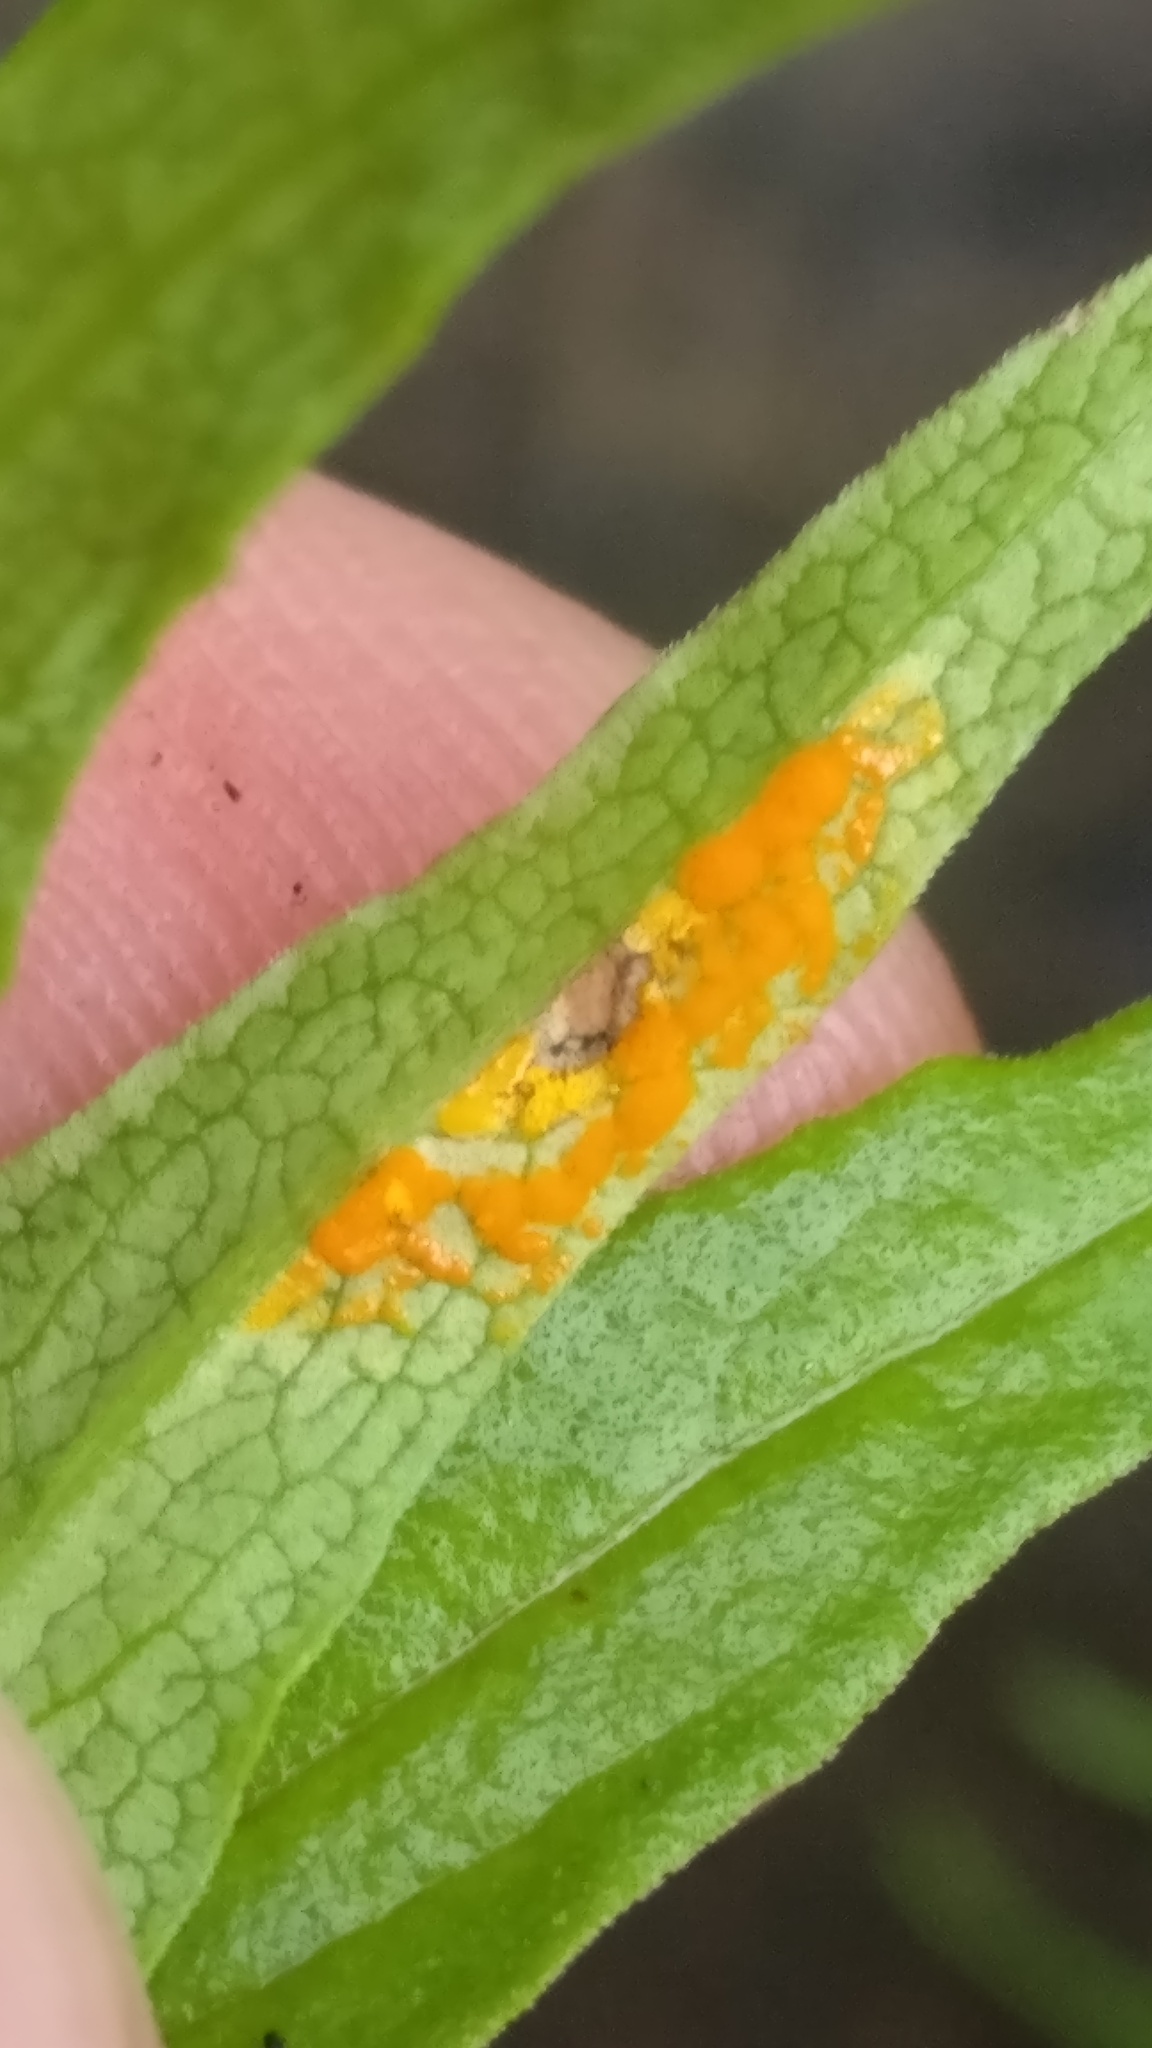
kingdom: Fungi
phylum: Basidiomycota
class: Pucciniomycetes
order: Pucciniales
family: Coleosporiaceae
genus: Coleosporium
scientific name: Coleosporium melampyri
